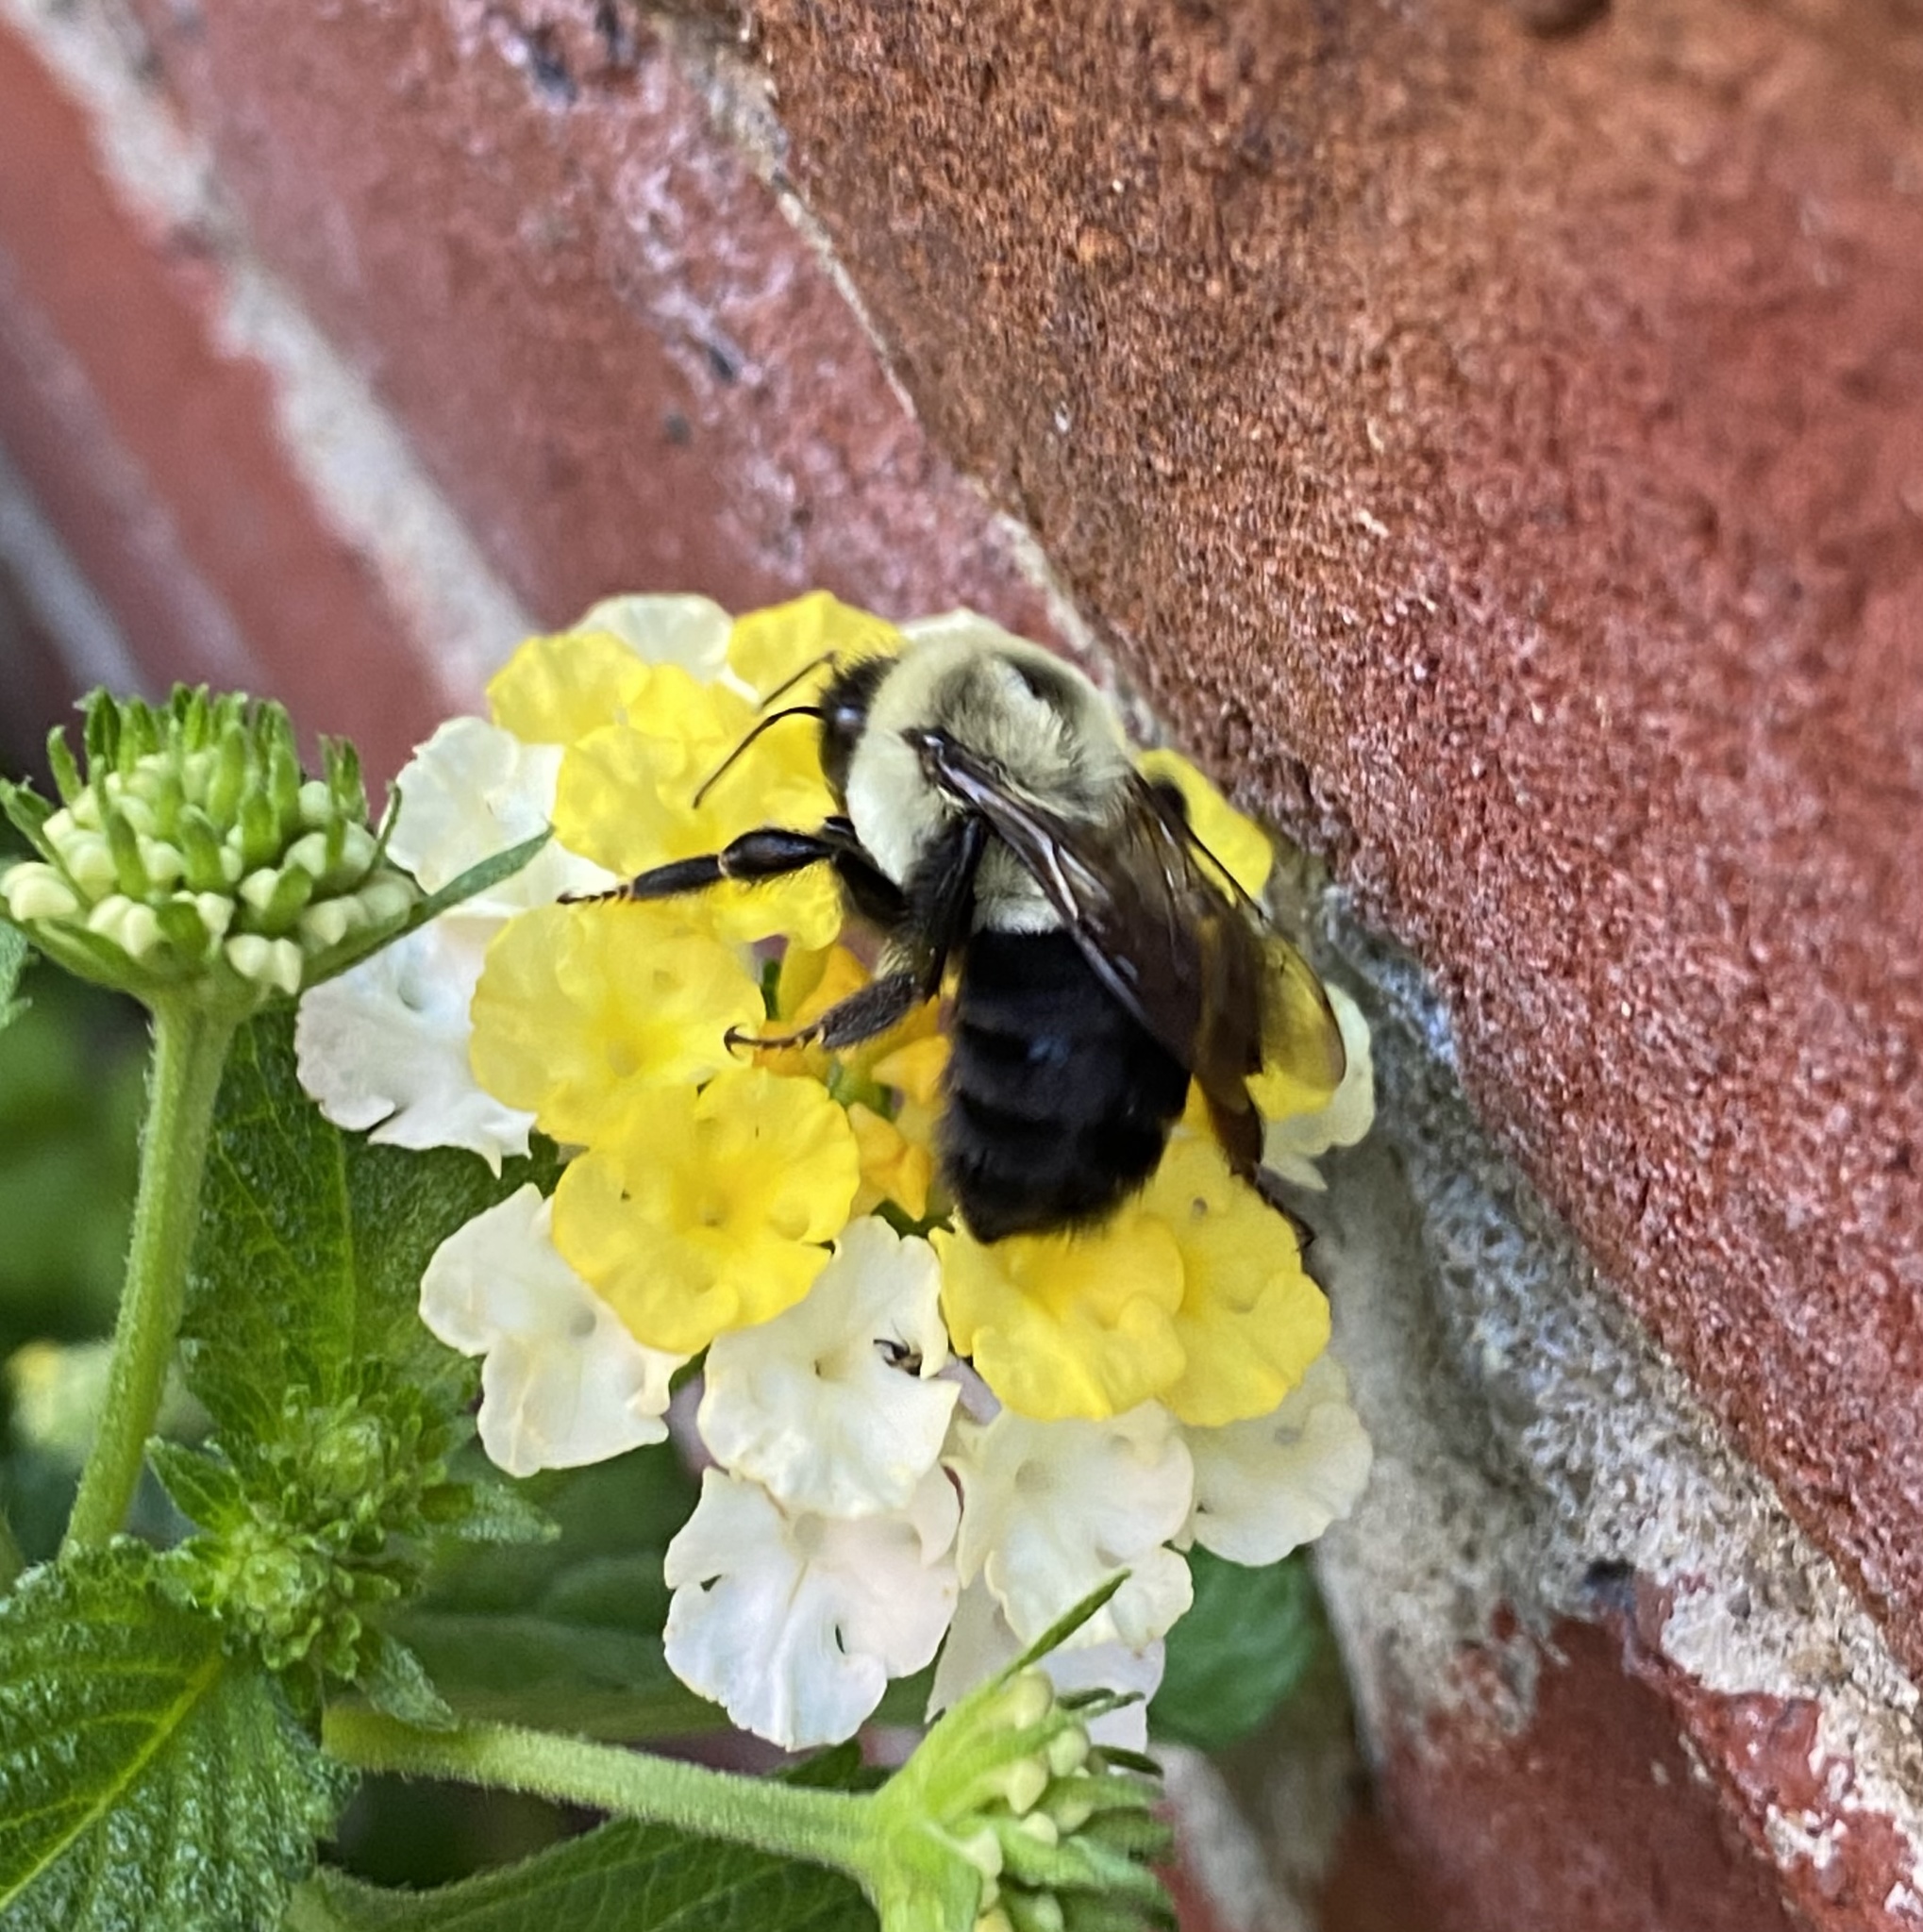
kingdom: Animalia
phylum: Arthropoda
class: Insecta
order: Hymenoptera
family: Apidae
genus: Bombus
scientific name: Bombus impatiens
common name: Common eastern bumble bee
